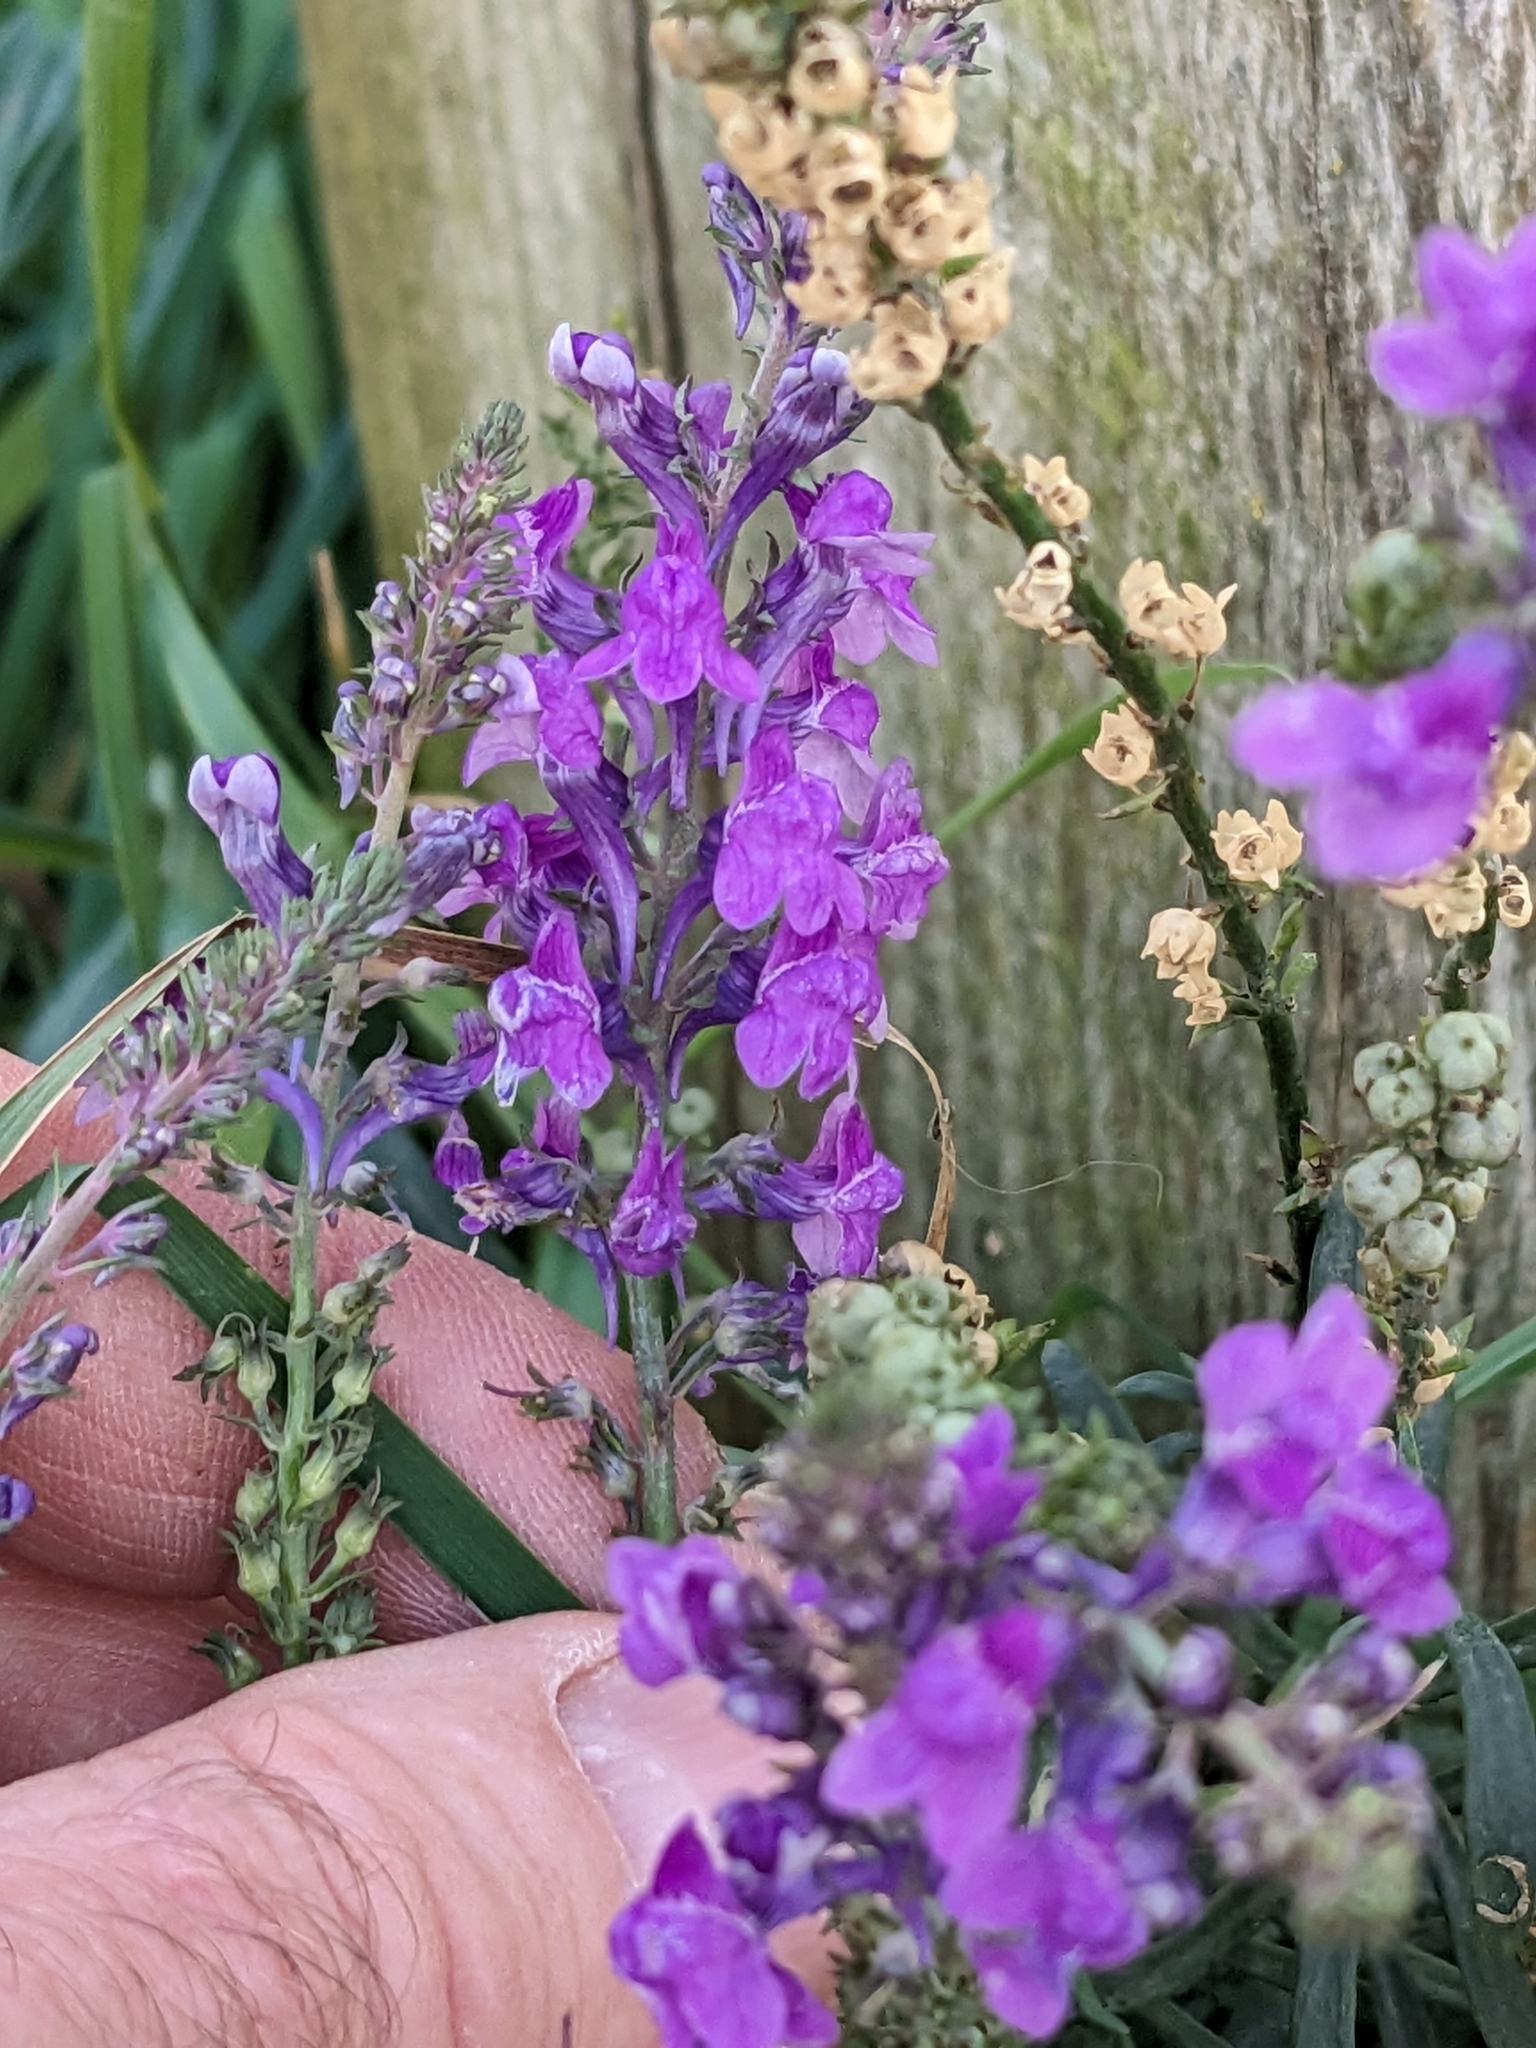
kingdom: Plantae
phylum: Tracheophyta
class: Magnoliopsida
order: Lamiales
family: Plantaginaceae
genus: Linaria
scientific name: Linaria purpurea
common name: Purple toadflax
